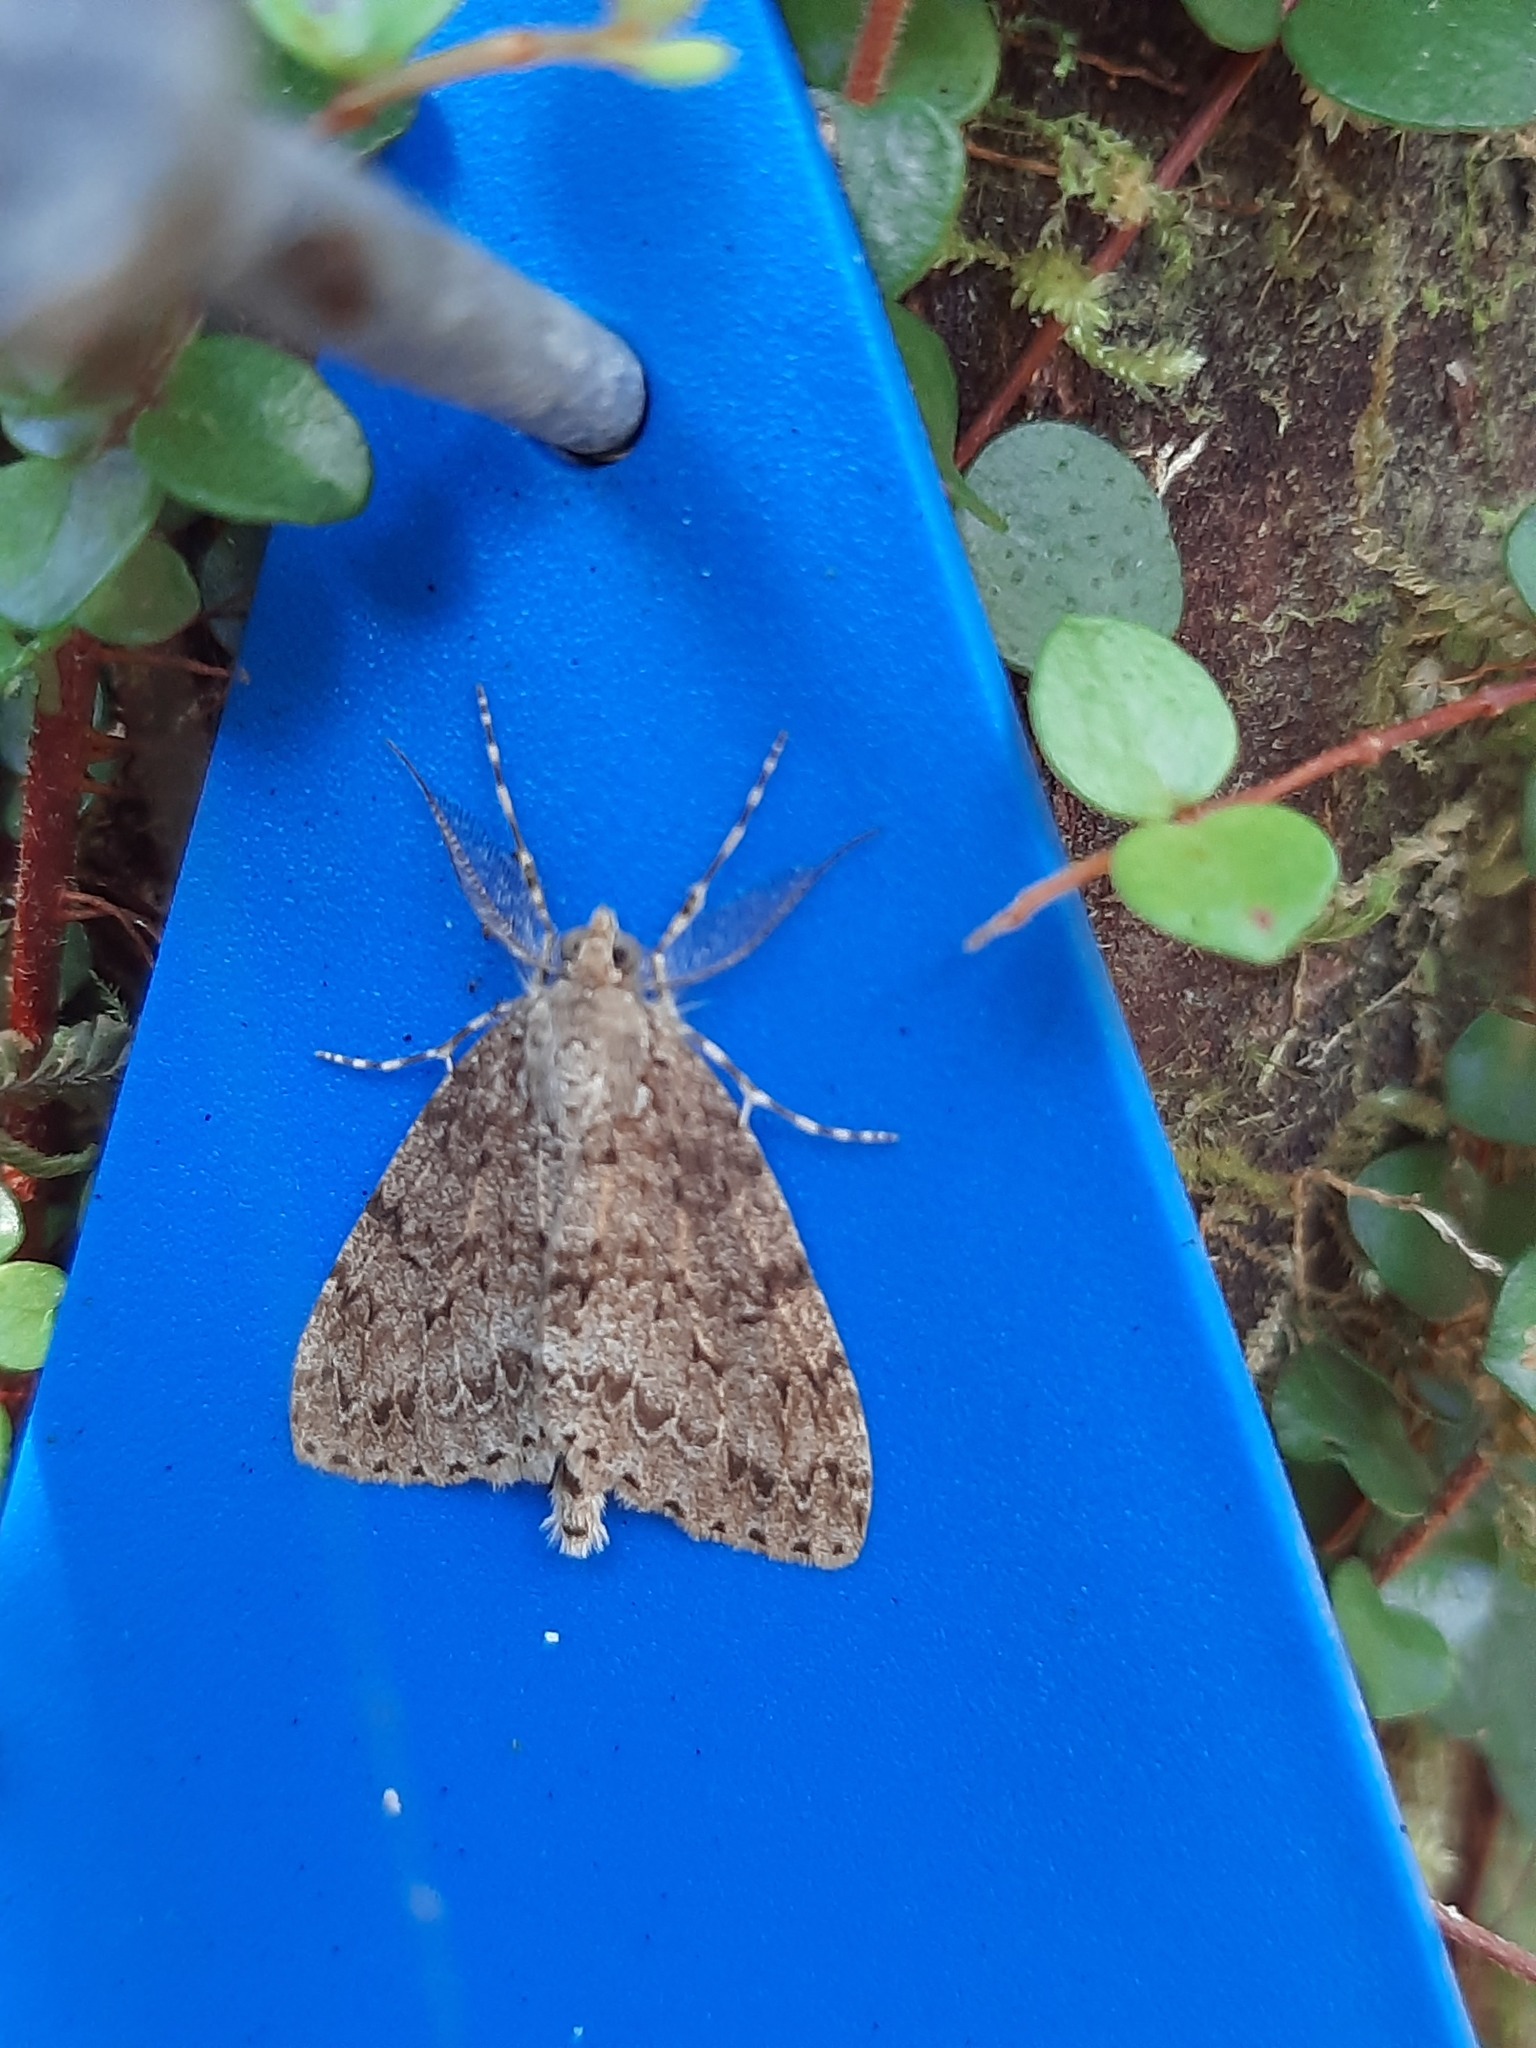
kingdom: Animalia
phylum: Arthropoda
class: Insecta
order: Lepidoptera
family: Geometridae
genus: Pseudocoremia
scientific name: Pseudocoremia fenerata
